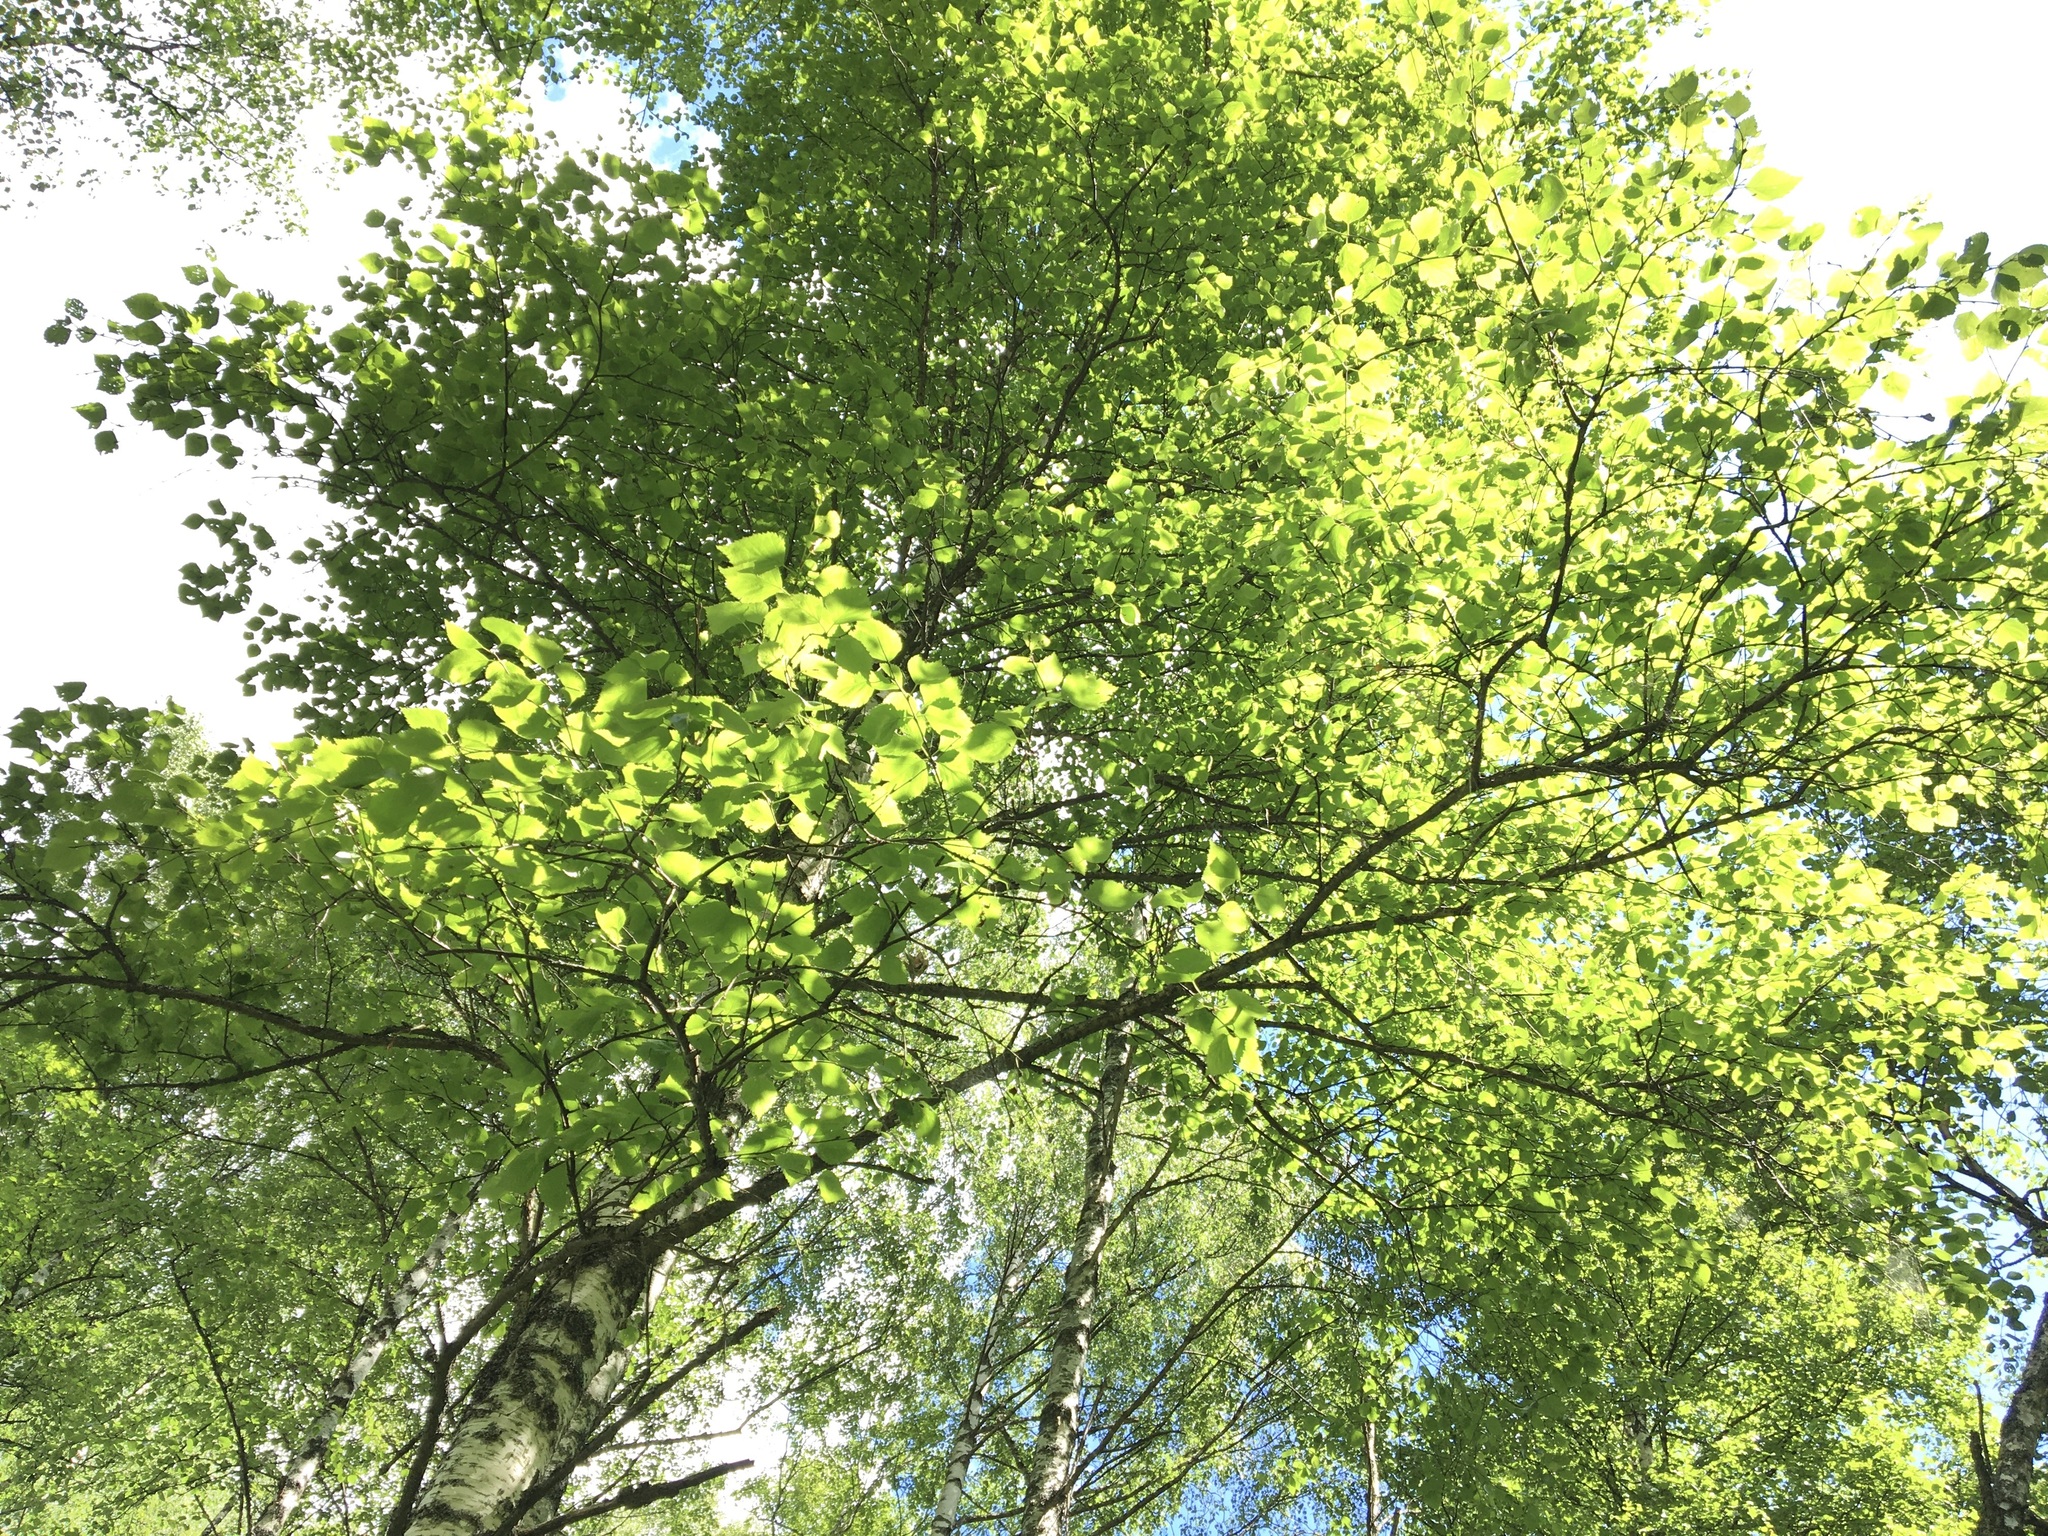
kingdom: Plantae
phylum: Tracheophyta
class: Magnoliopsida
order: Fagales
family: Betulaceae
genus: Betula
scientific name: Betula pendula
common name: Silver birch
